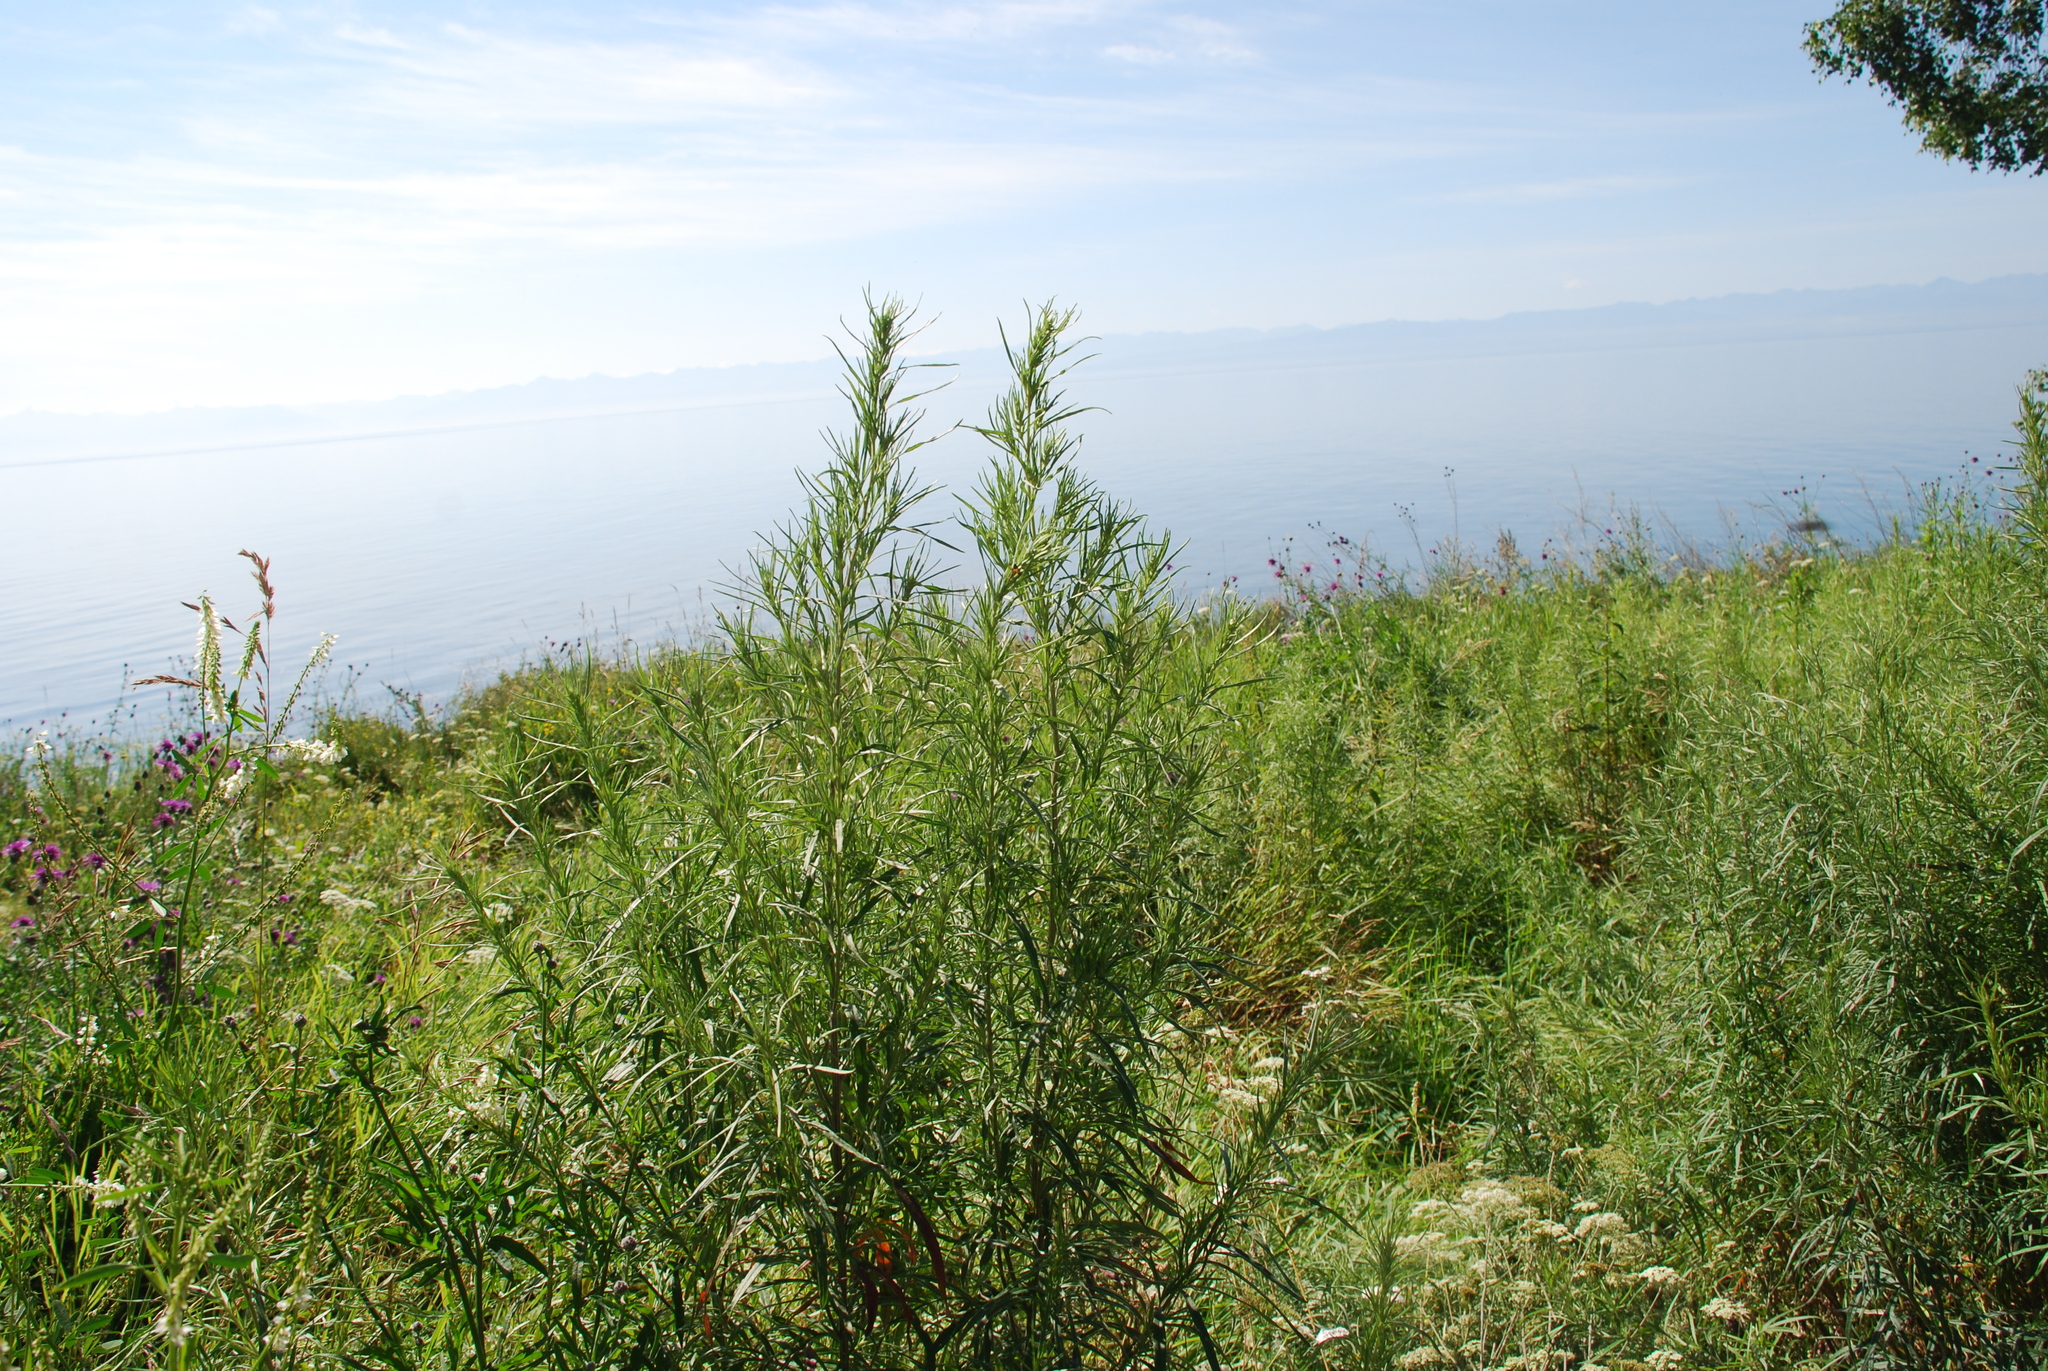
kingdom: Plantae
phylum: Tracheophyta
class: Magnoliopsida
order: Asterales
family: Asteraceae
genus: Artemisia
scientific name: Artemisia dracunculus
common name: Tarragon
